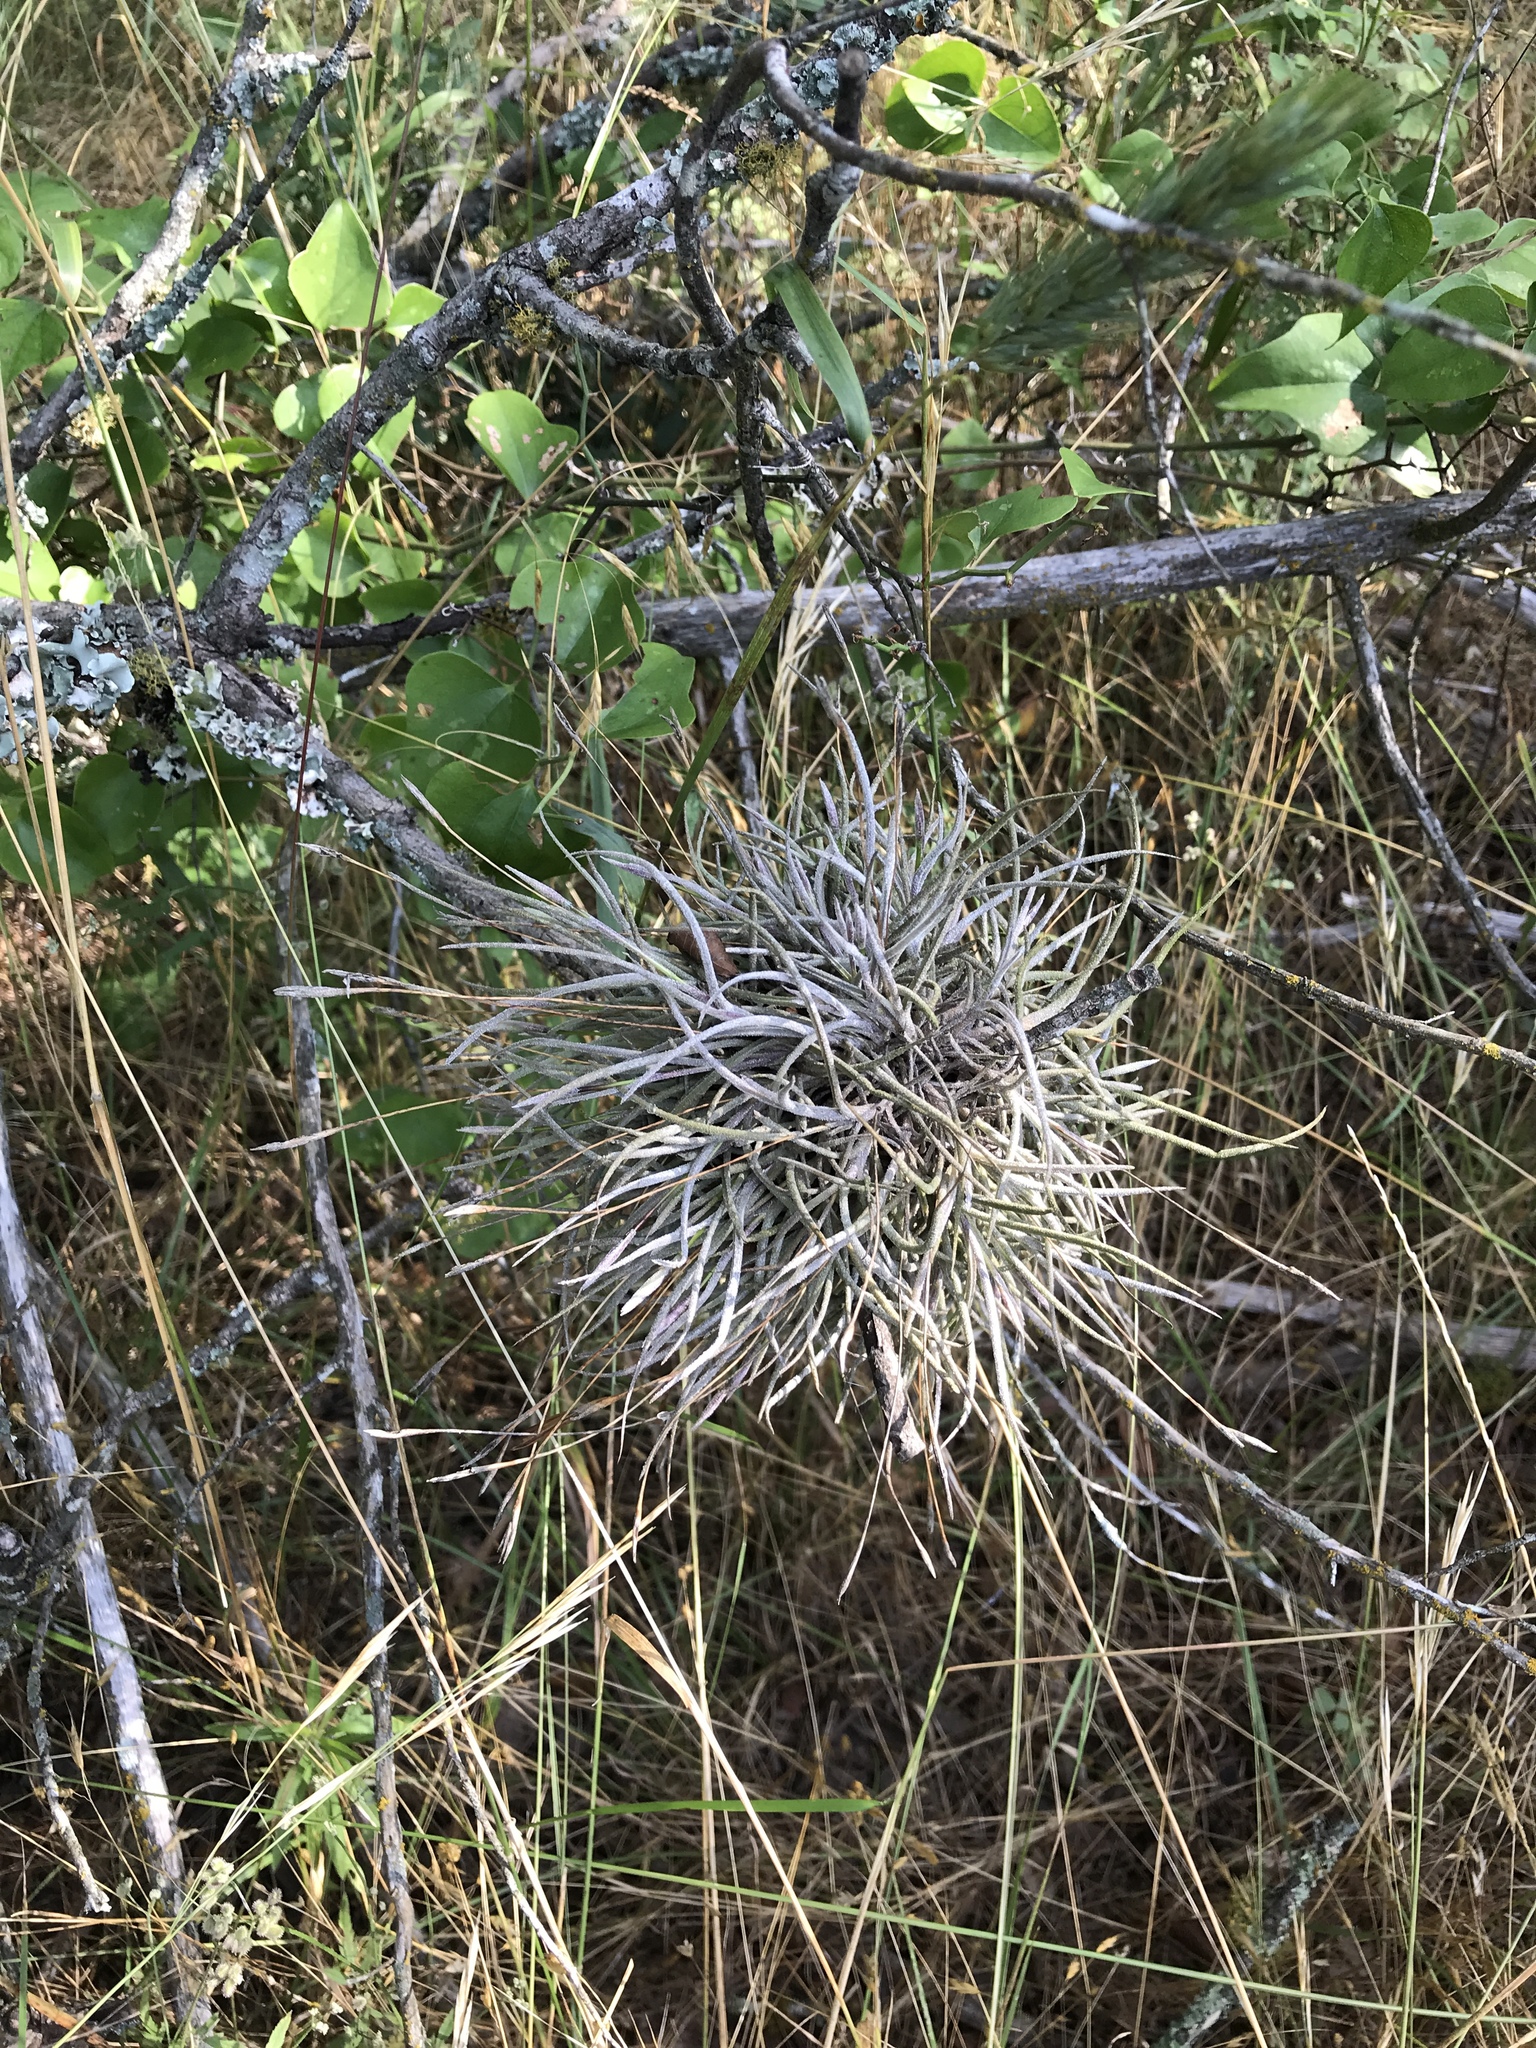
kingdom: Plantae
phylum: Tracheophyta
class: Liliopsida
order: Poales
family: Bromeliaceae
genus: Tillandsia
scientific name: Tillandsia recurvata
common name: Small ballmoss
